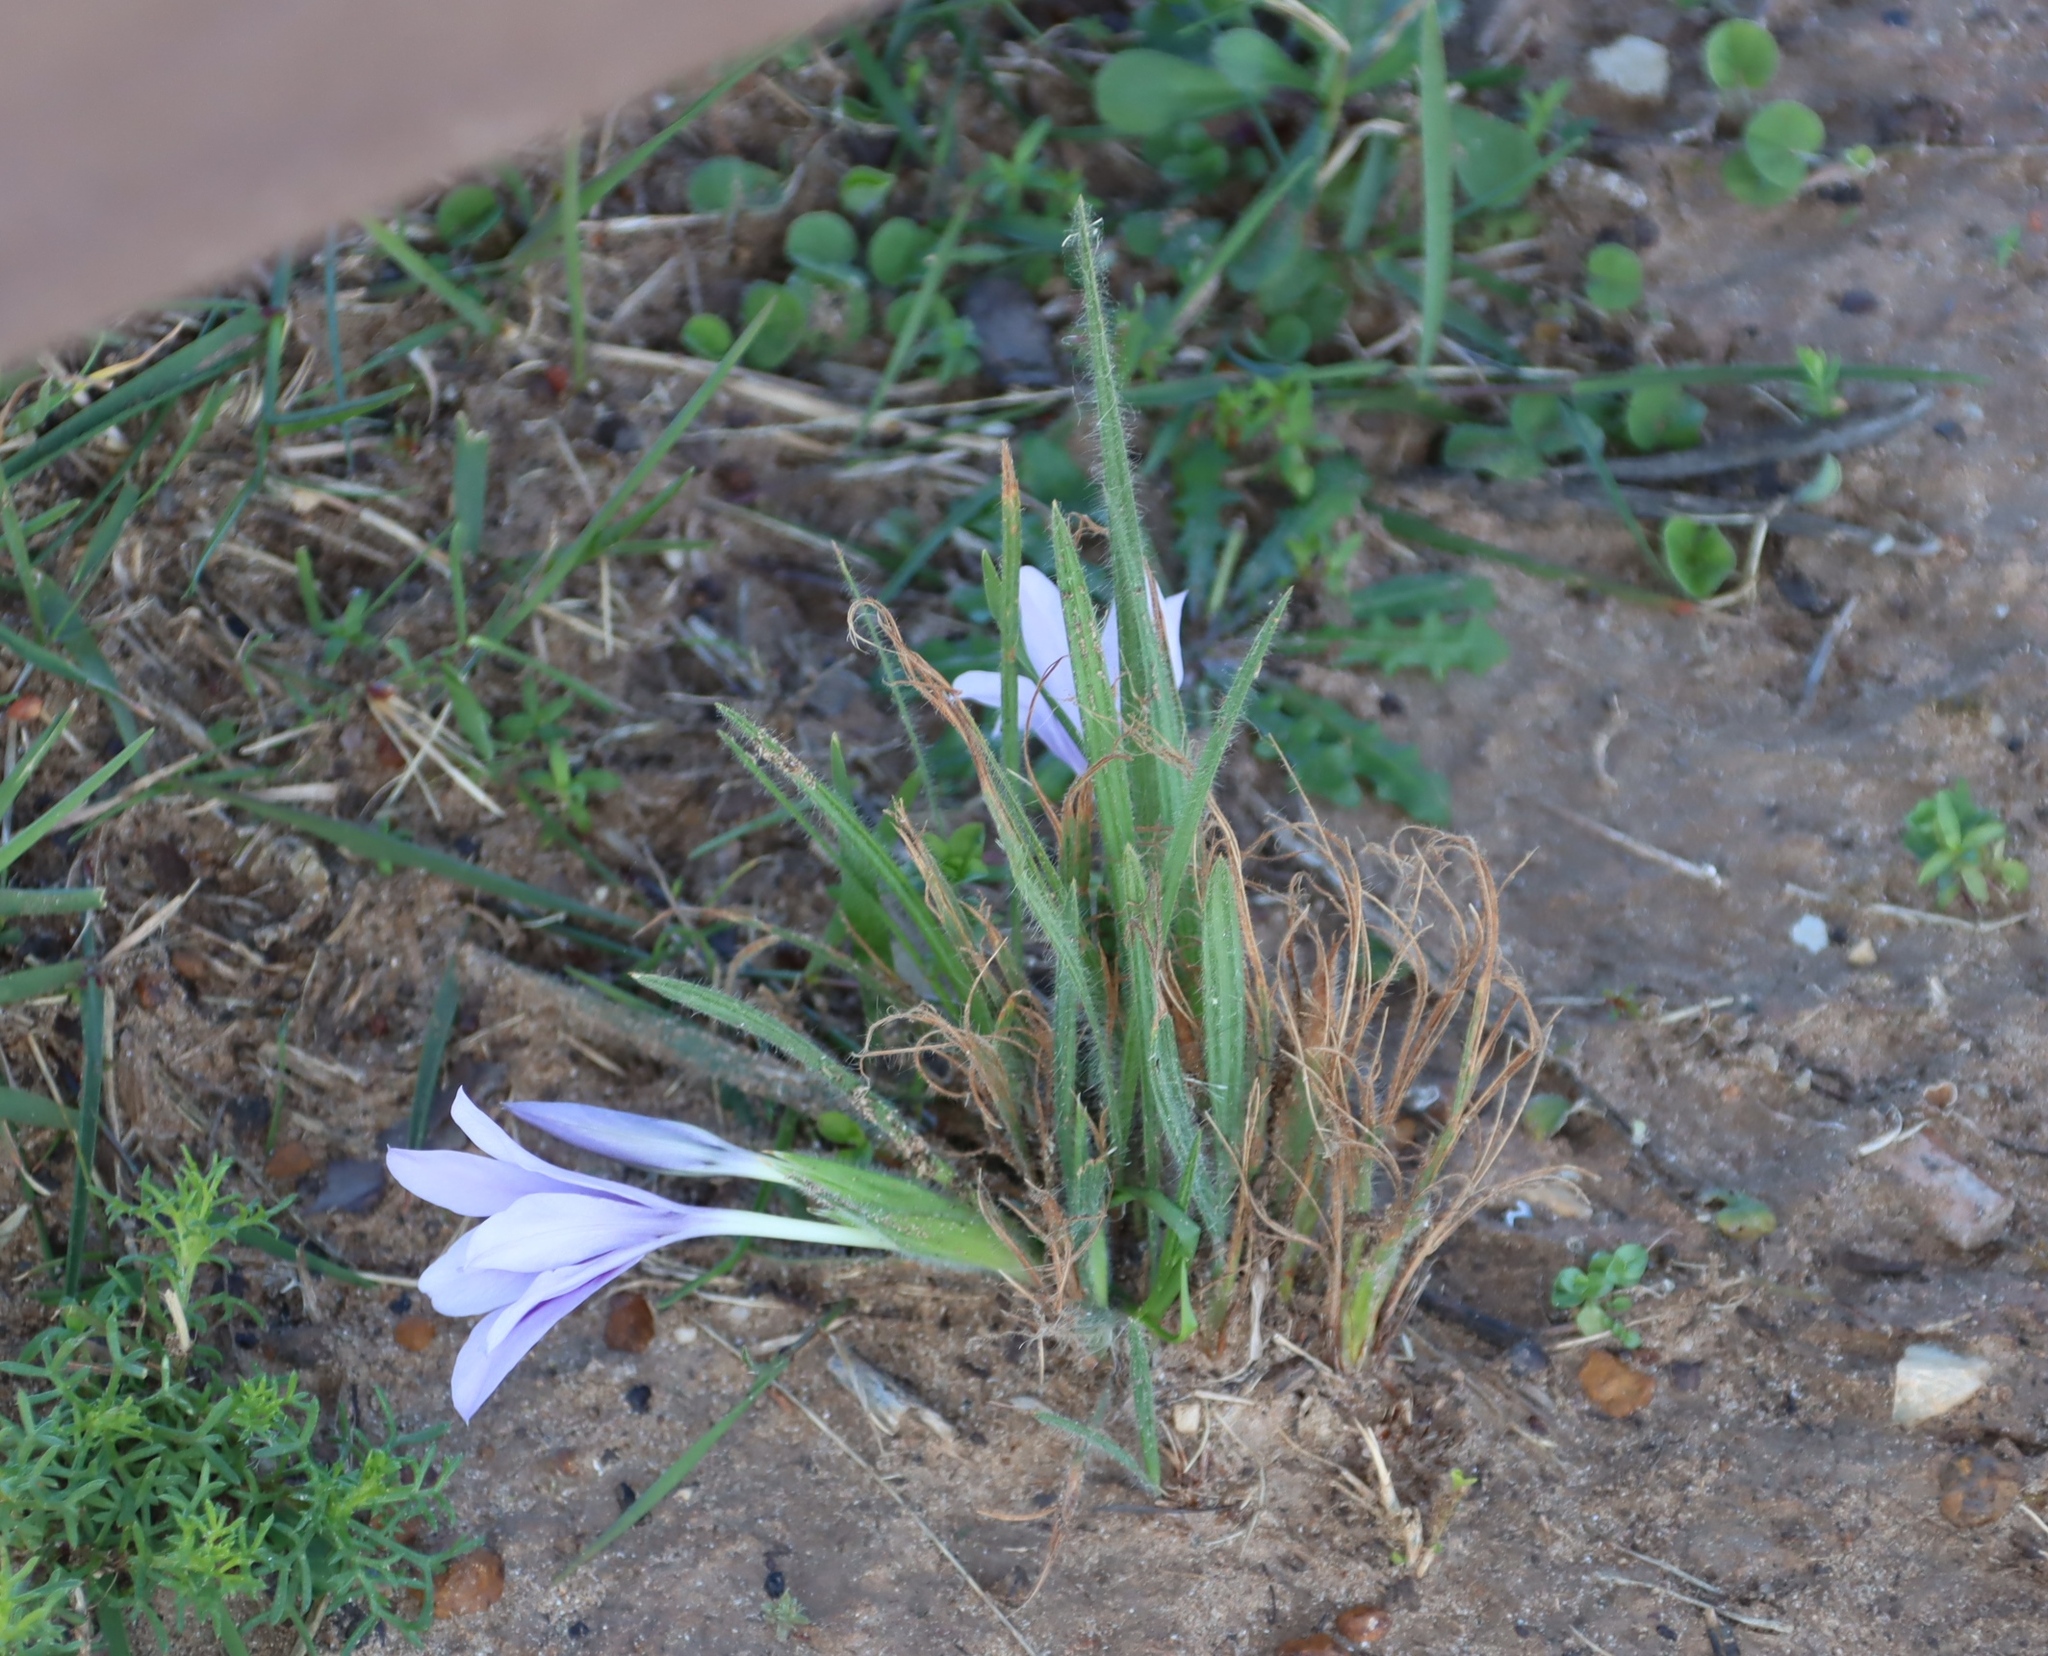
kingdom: Plantae
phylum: Tracheophyta
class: Liliopsida
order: Asparagales
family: Iridaceae
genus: Babiana
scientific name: Babiana sambucina
